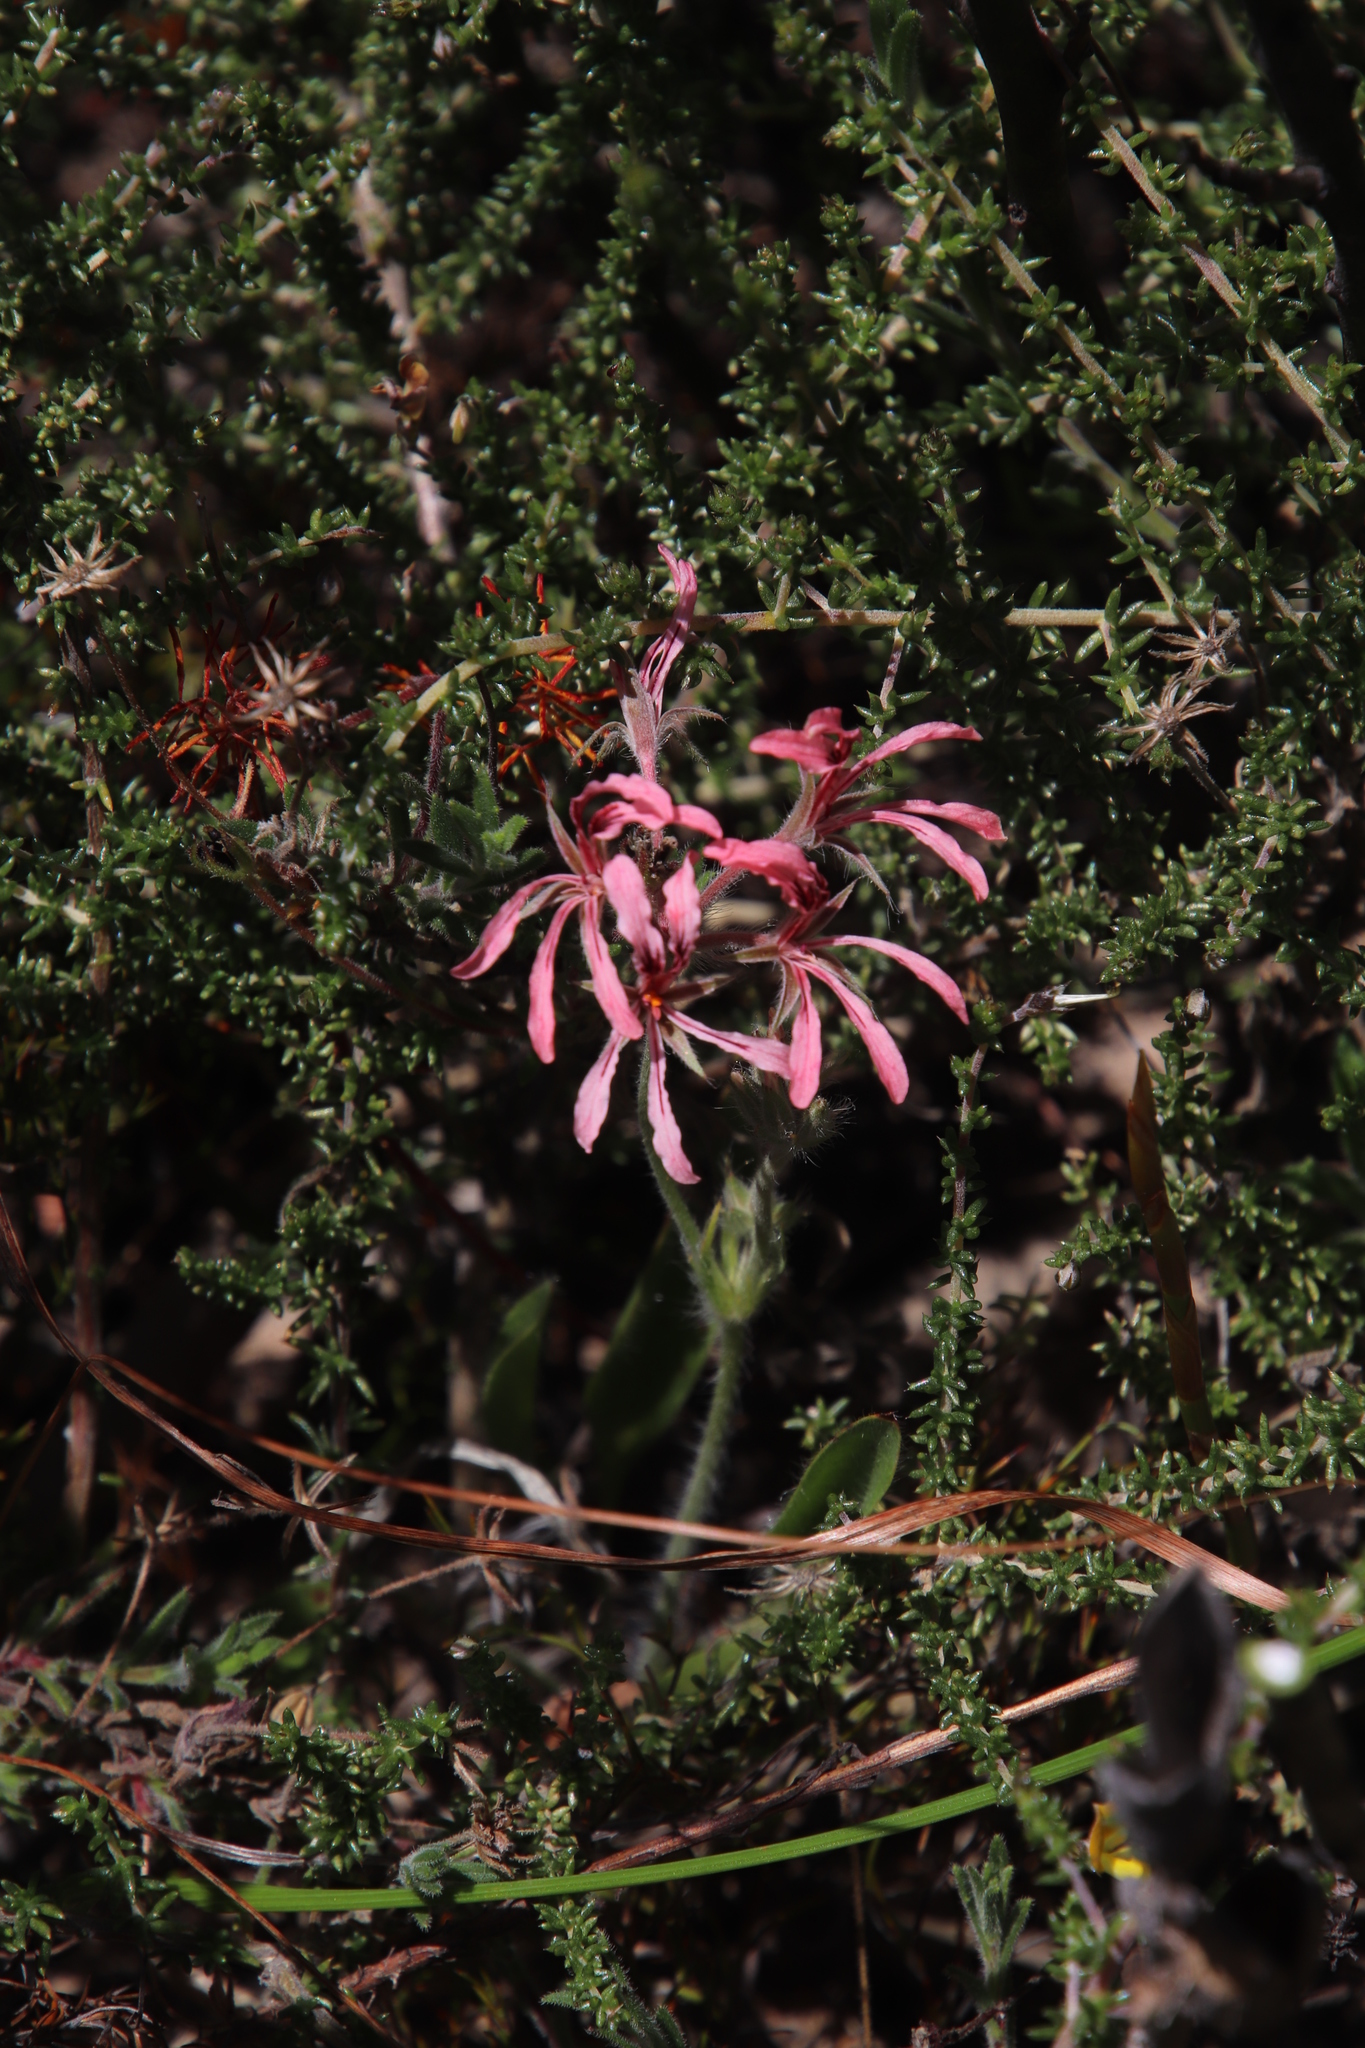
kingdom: Plantae
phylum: Tracheophyta
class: Magnoliopsida
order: Geraniales
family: Geraniaceae
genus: Pelargonium
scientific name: Pelargonium longifolium
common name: Bearded pelargonium
